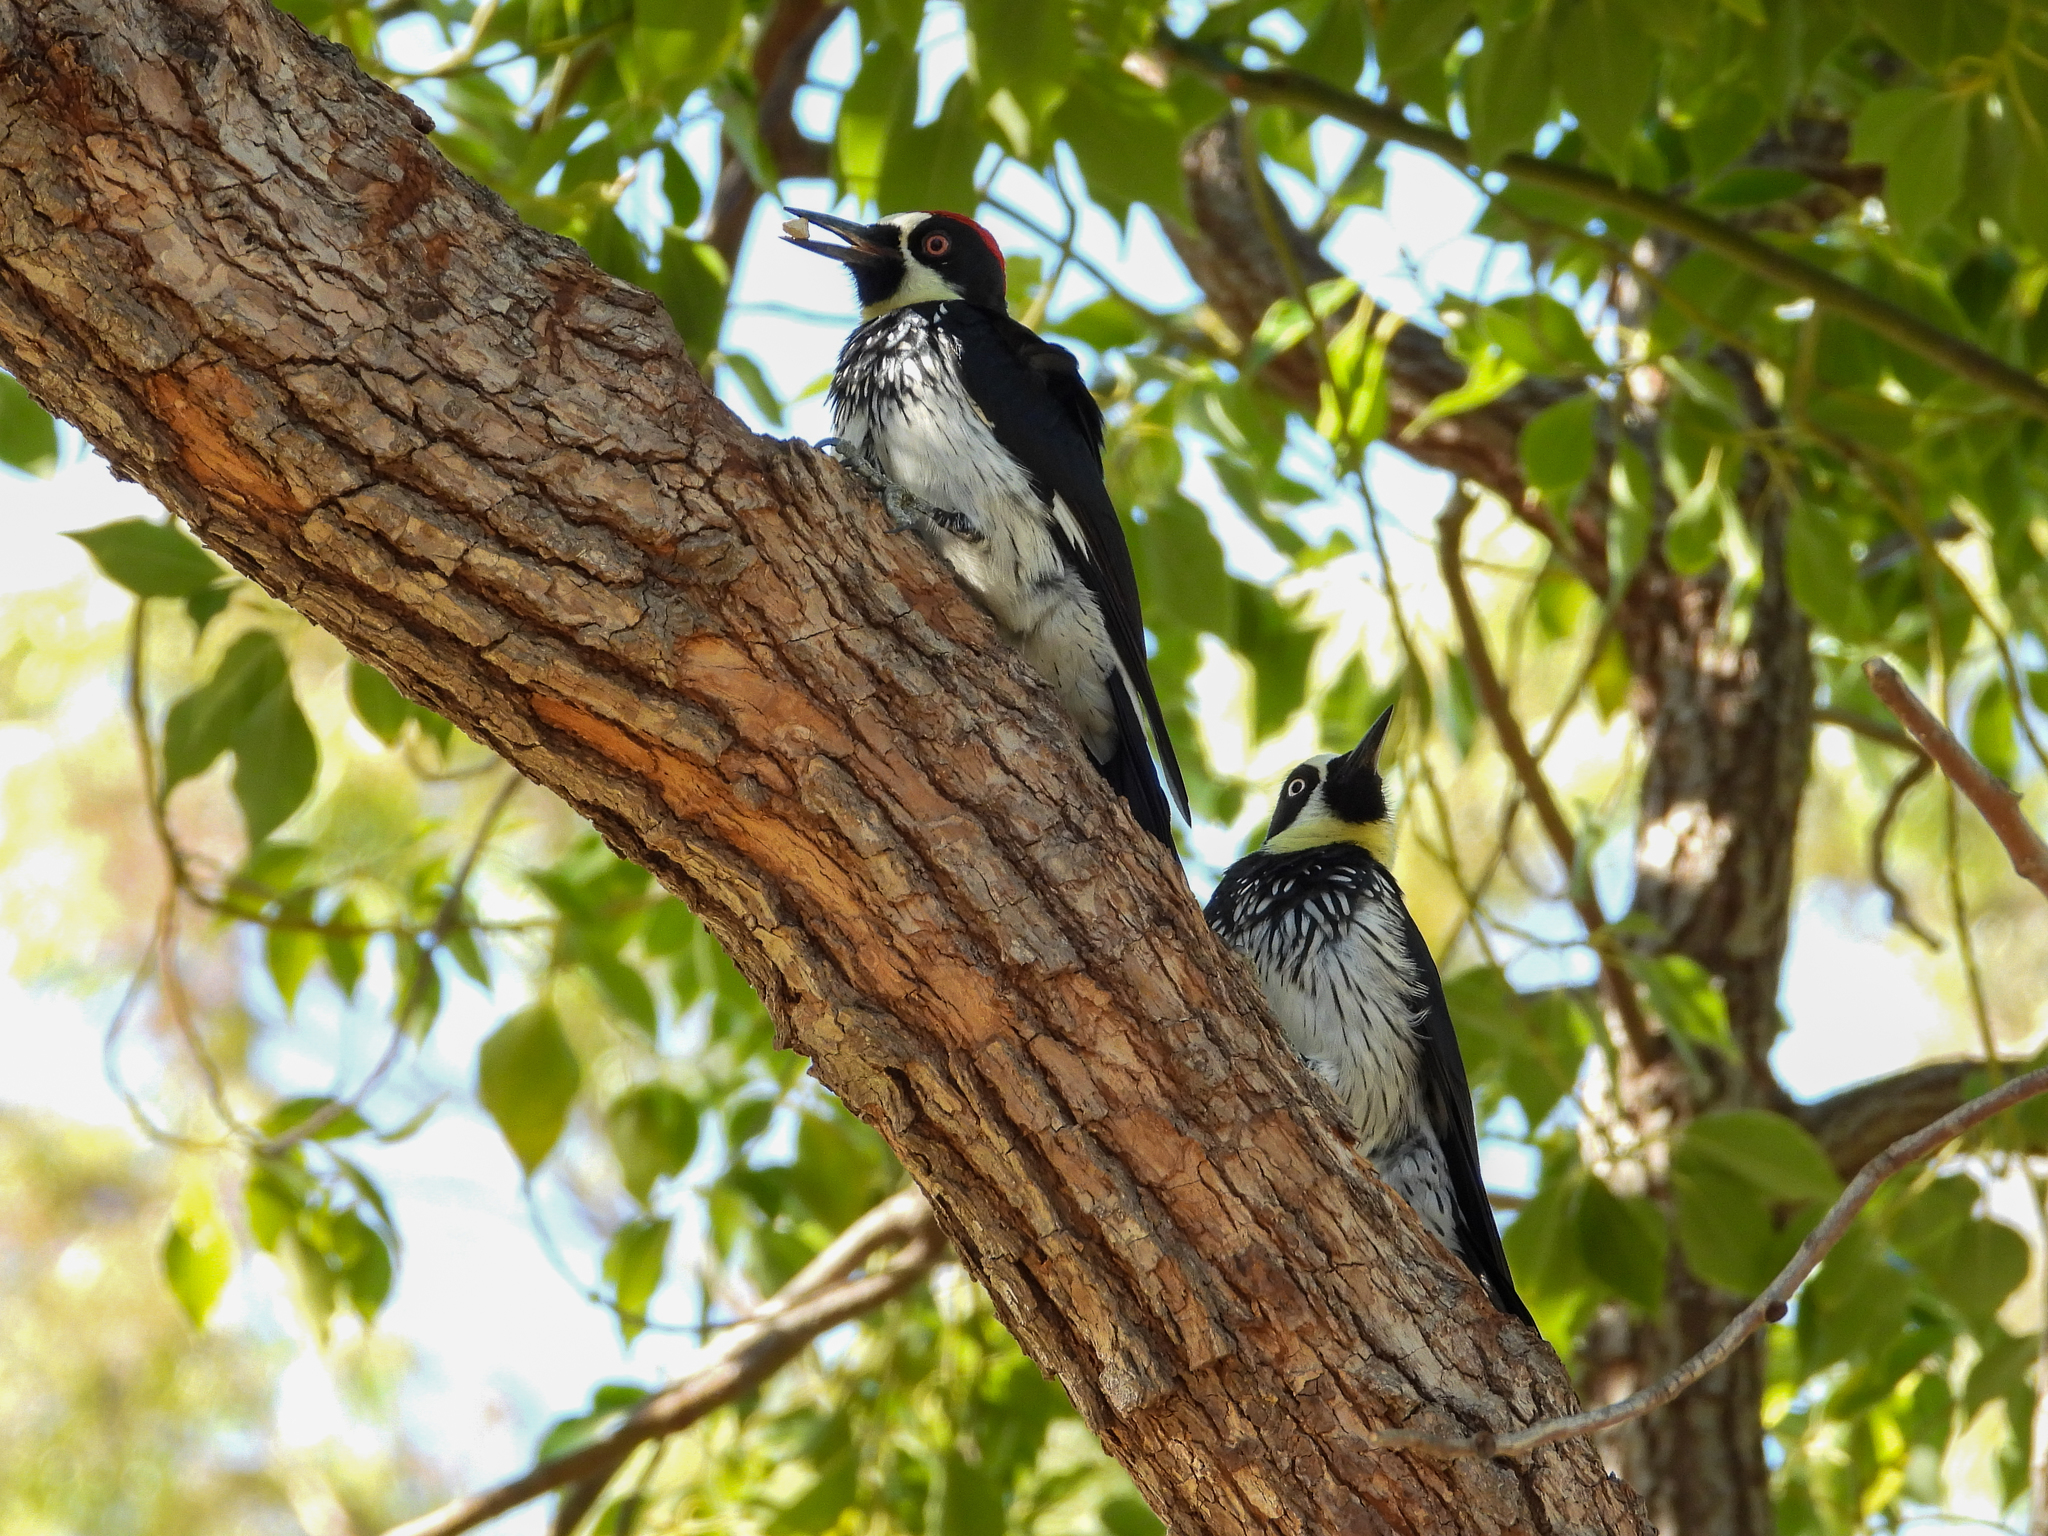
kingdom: Animalia
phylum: Chordata
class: Aves
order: Piciformes
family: Picidae
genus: Melanerpes
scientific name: Melanerpes formicivorus
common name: Acorn woodpecker
